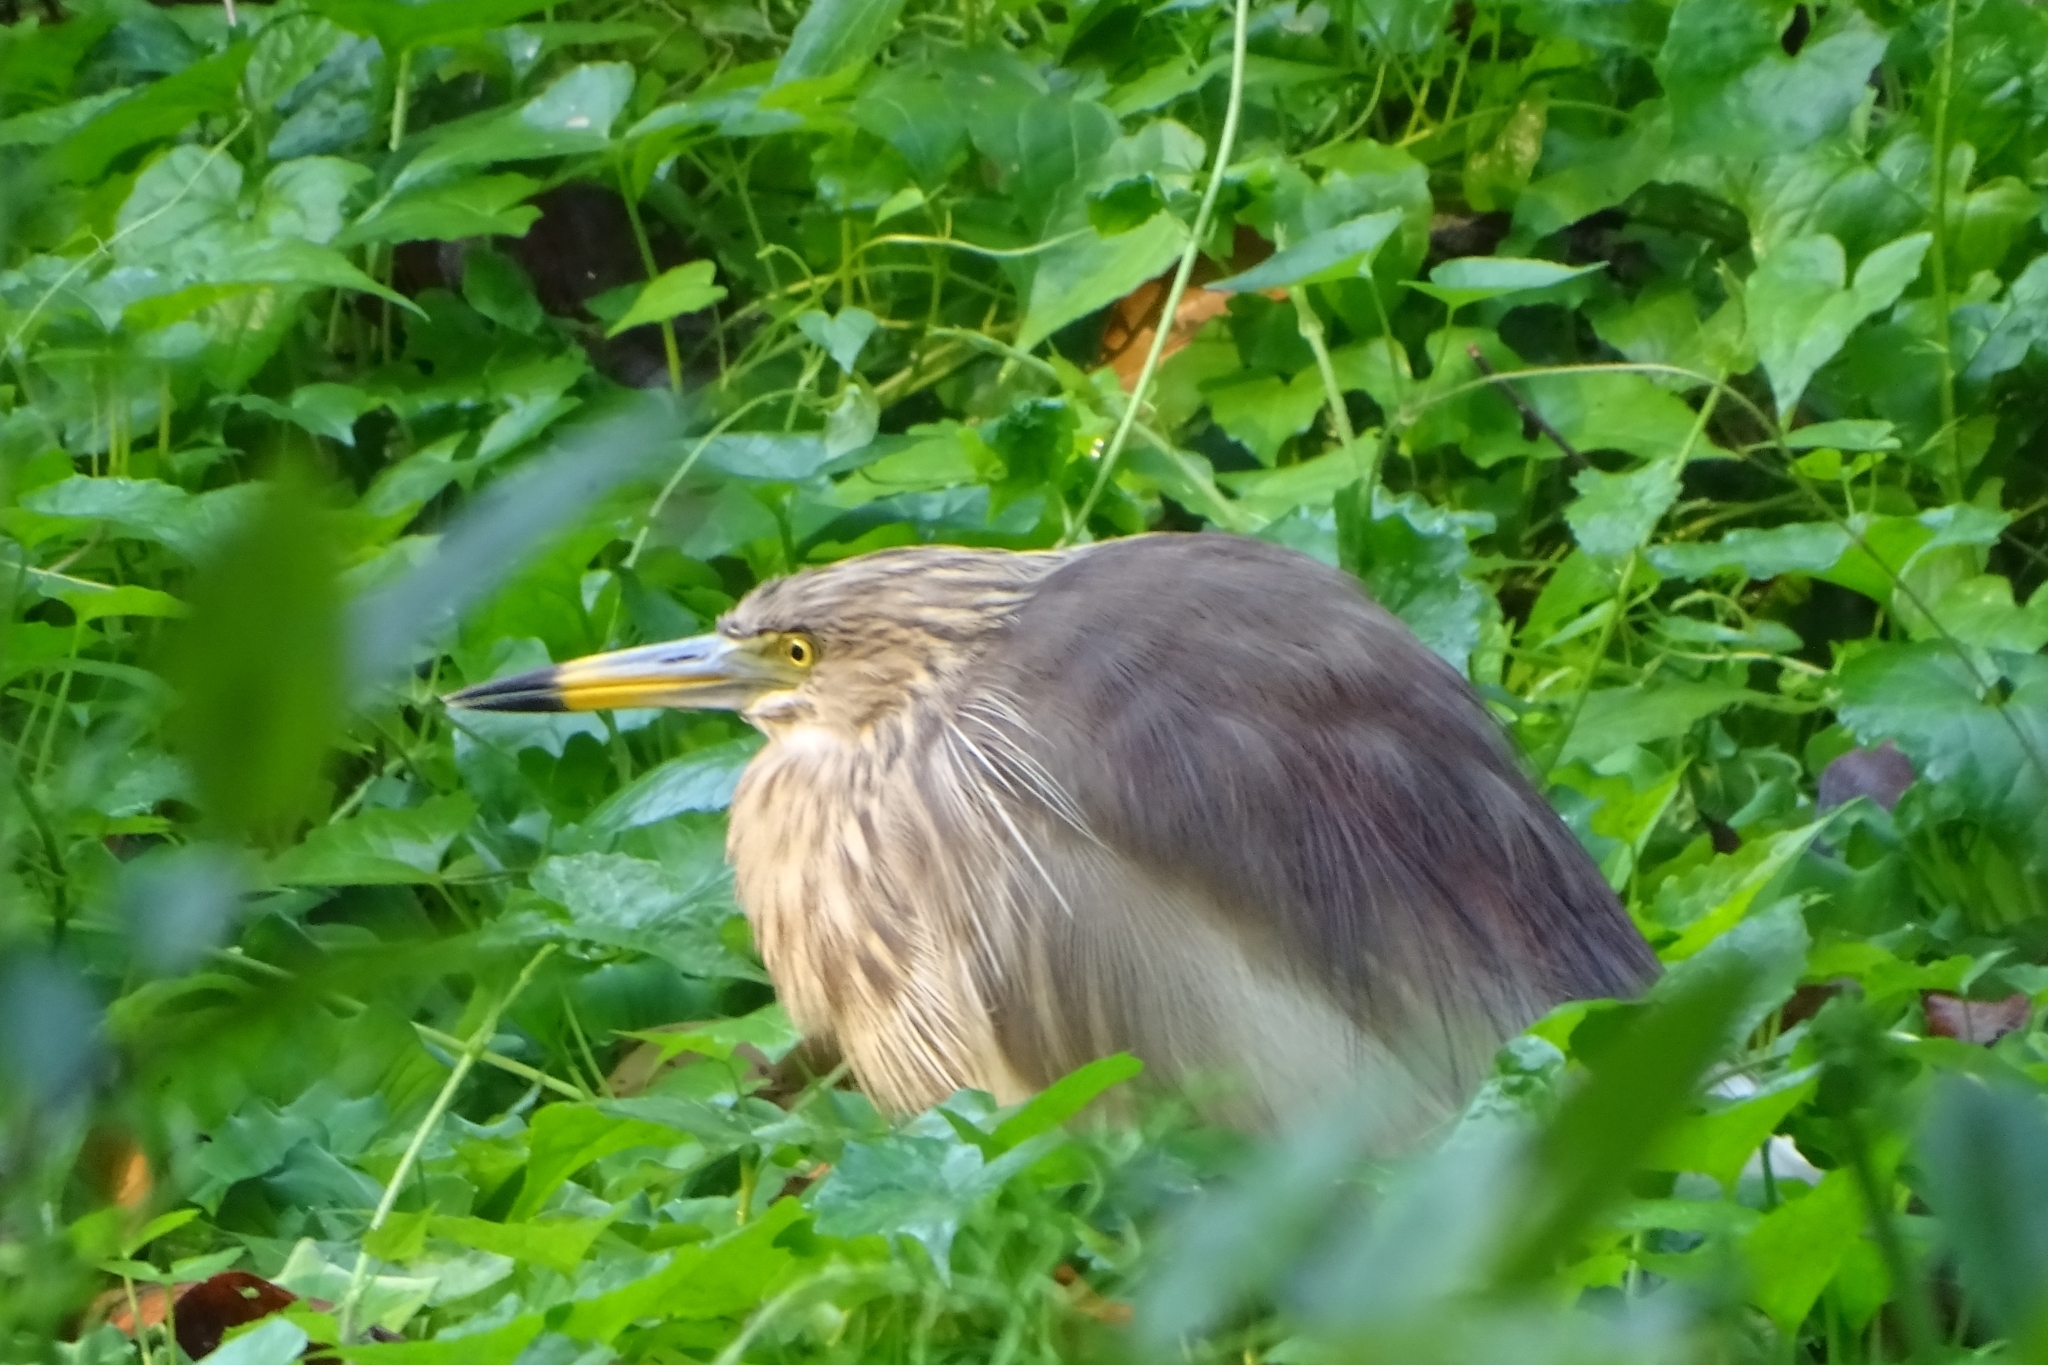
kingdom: Animalia
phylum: Chordata
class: Aves
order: Pelecaniformes
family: Ardeidae
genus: Ardeola
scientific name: Ardeola grayii
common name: Indian pond heron
